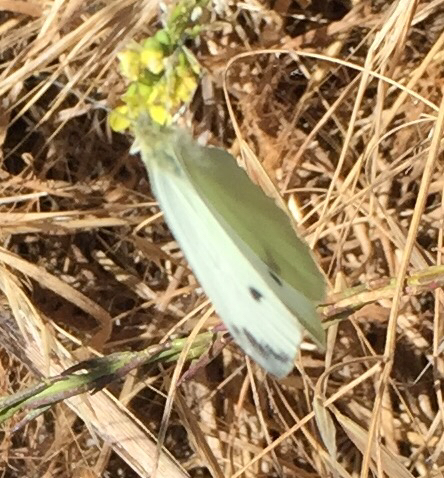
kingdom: Animalia
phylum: Arthropoda
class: Insecta
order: Lepidoptera
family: Pieridae
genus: Pieris
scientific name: Pieris rapae
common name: Small white
